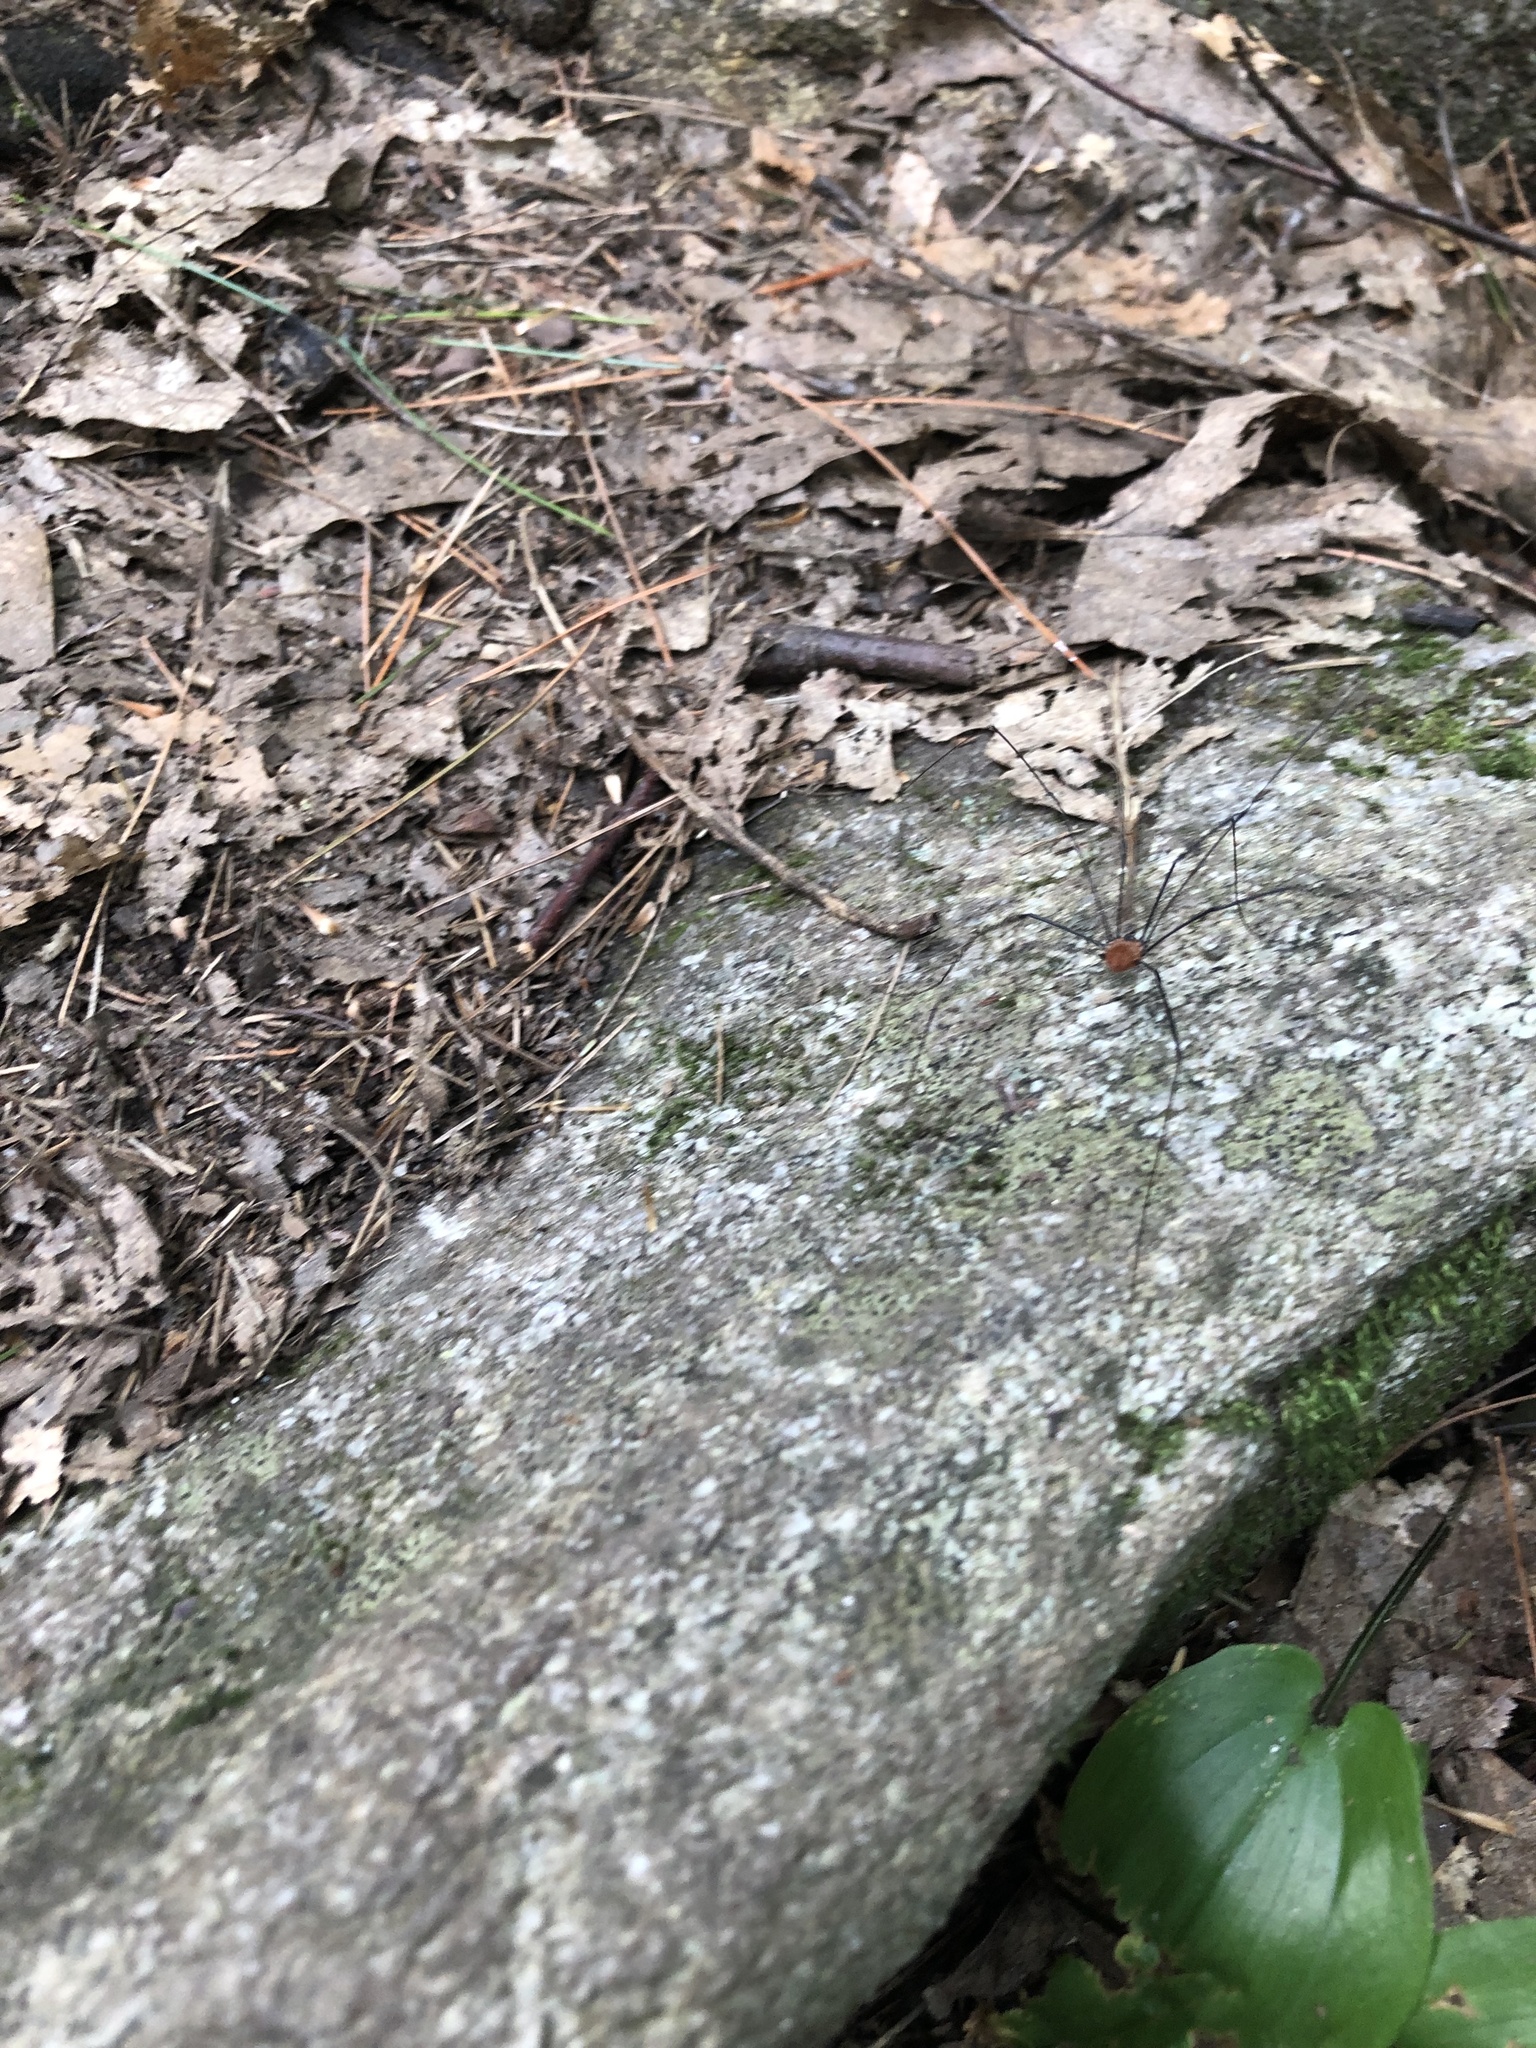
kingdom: Animalia
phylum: Arthropoda
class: Arachnida
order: Opiliones
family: Sclerosomatidae
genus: Leiobunum
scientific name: Leiobunum nigropalpi
